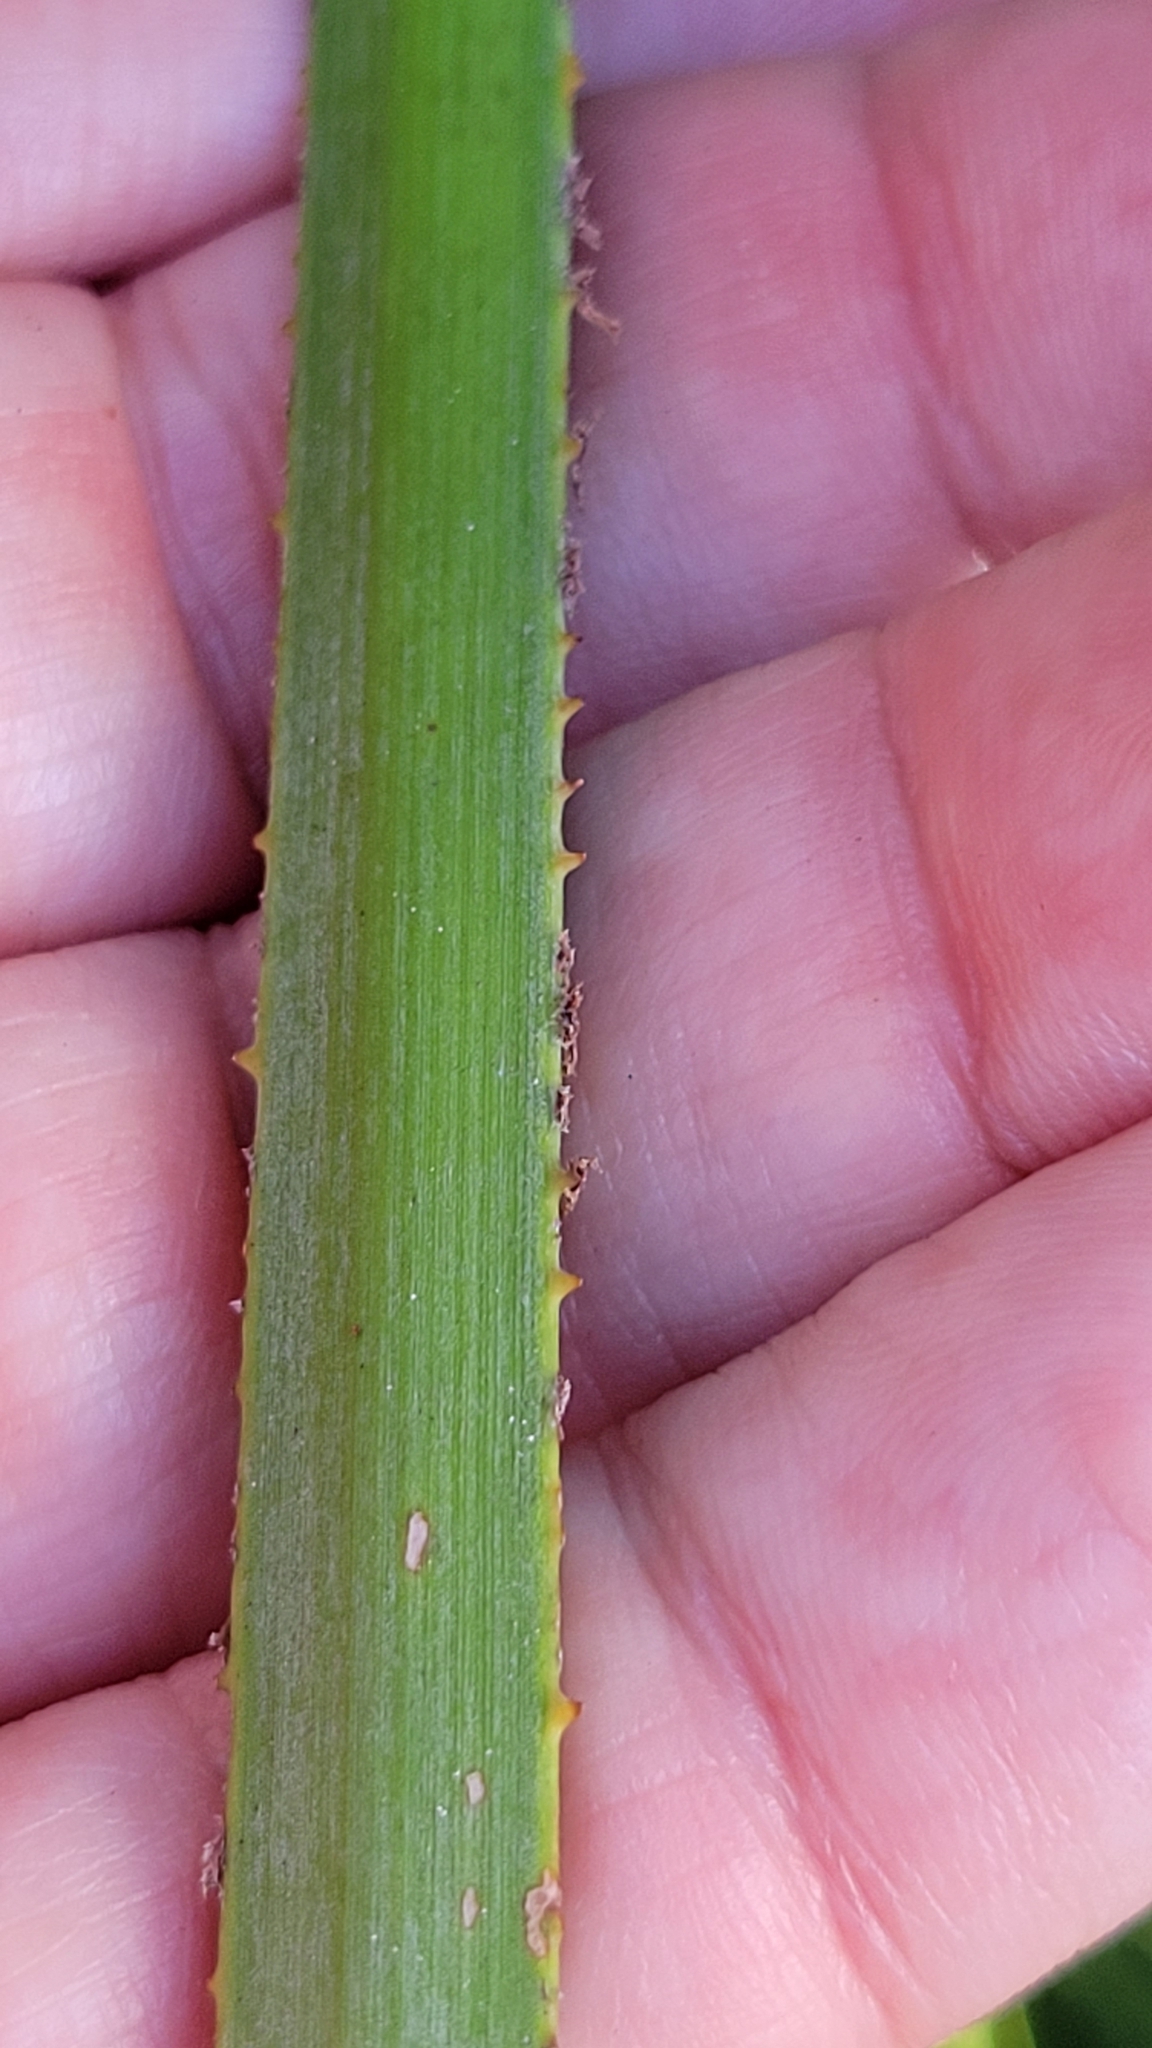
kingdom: Plantae
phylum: Tracheophyta
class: Liliopsida
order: Arecales
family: Arecaceae
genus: Serenoa
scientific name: Serenoa repens
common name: Saw-palmetto
